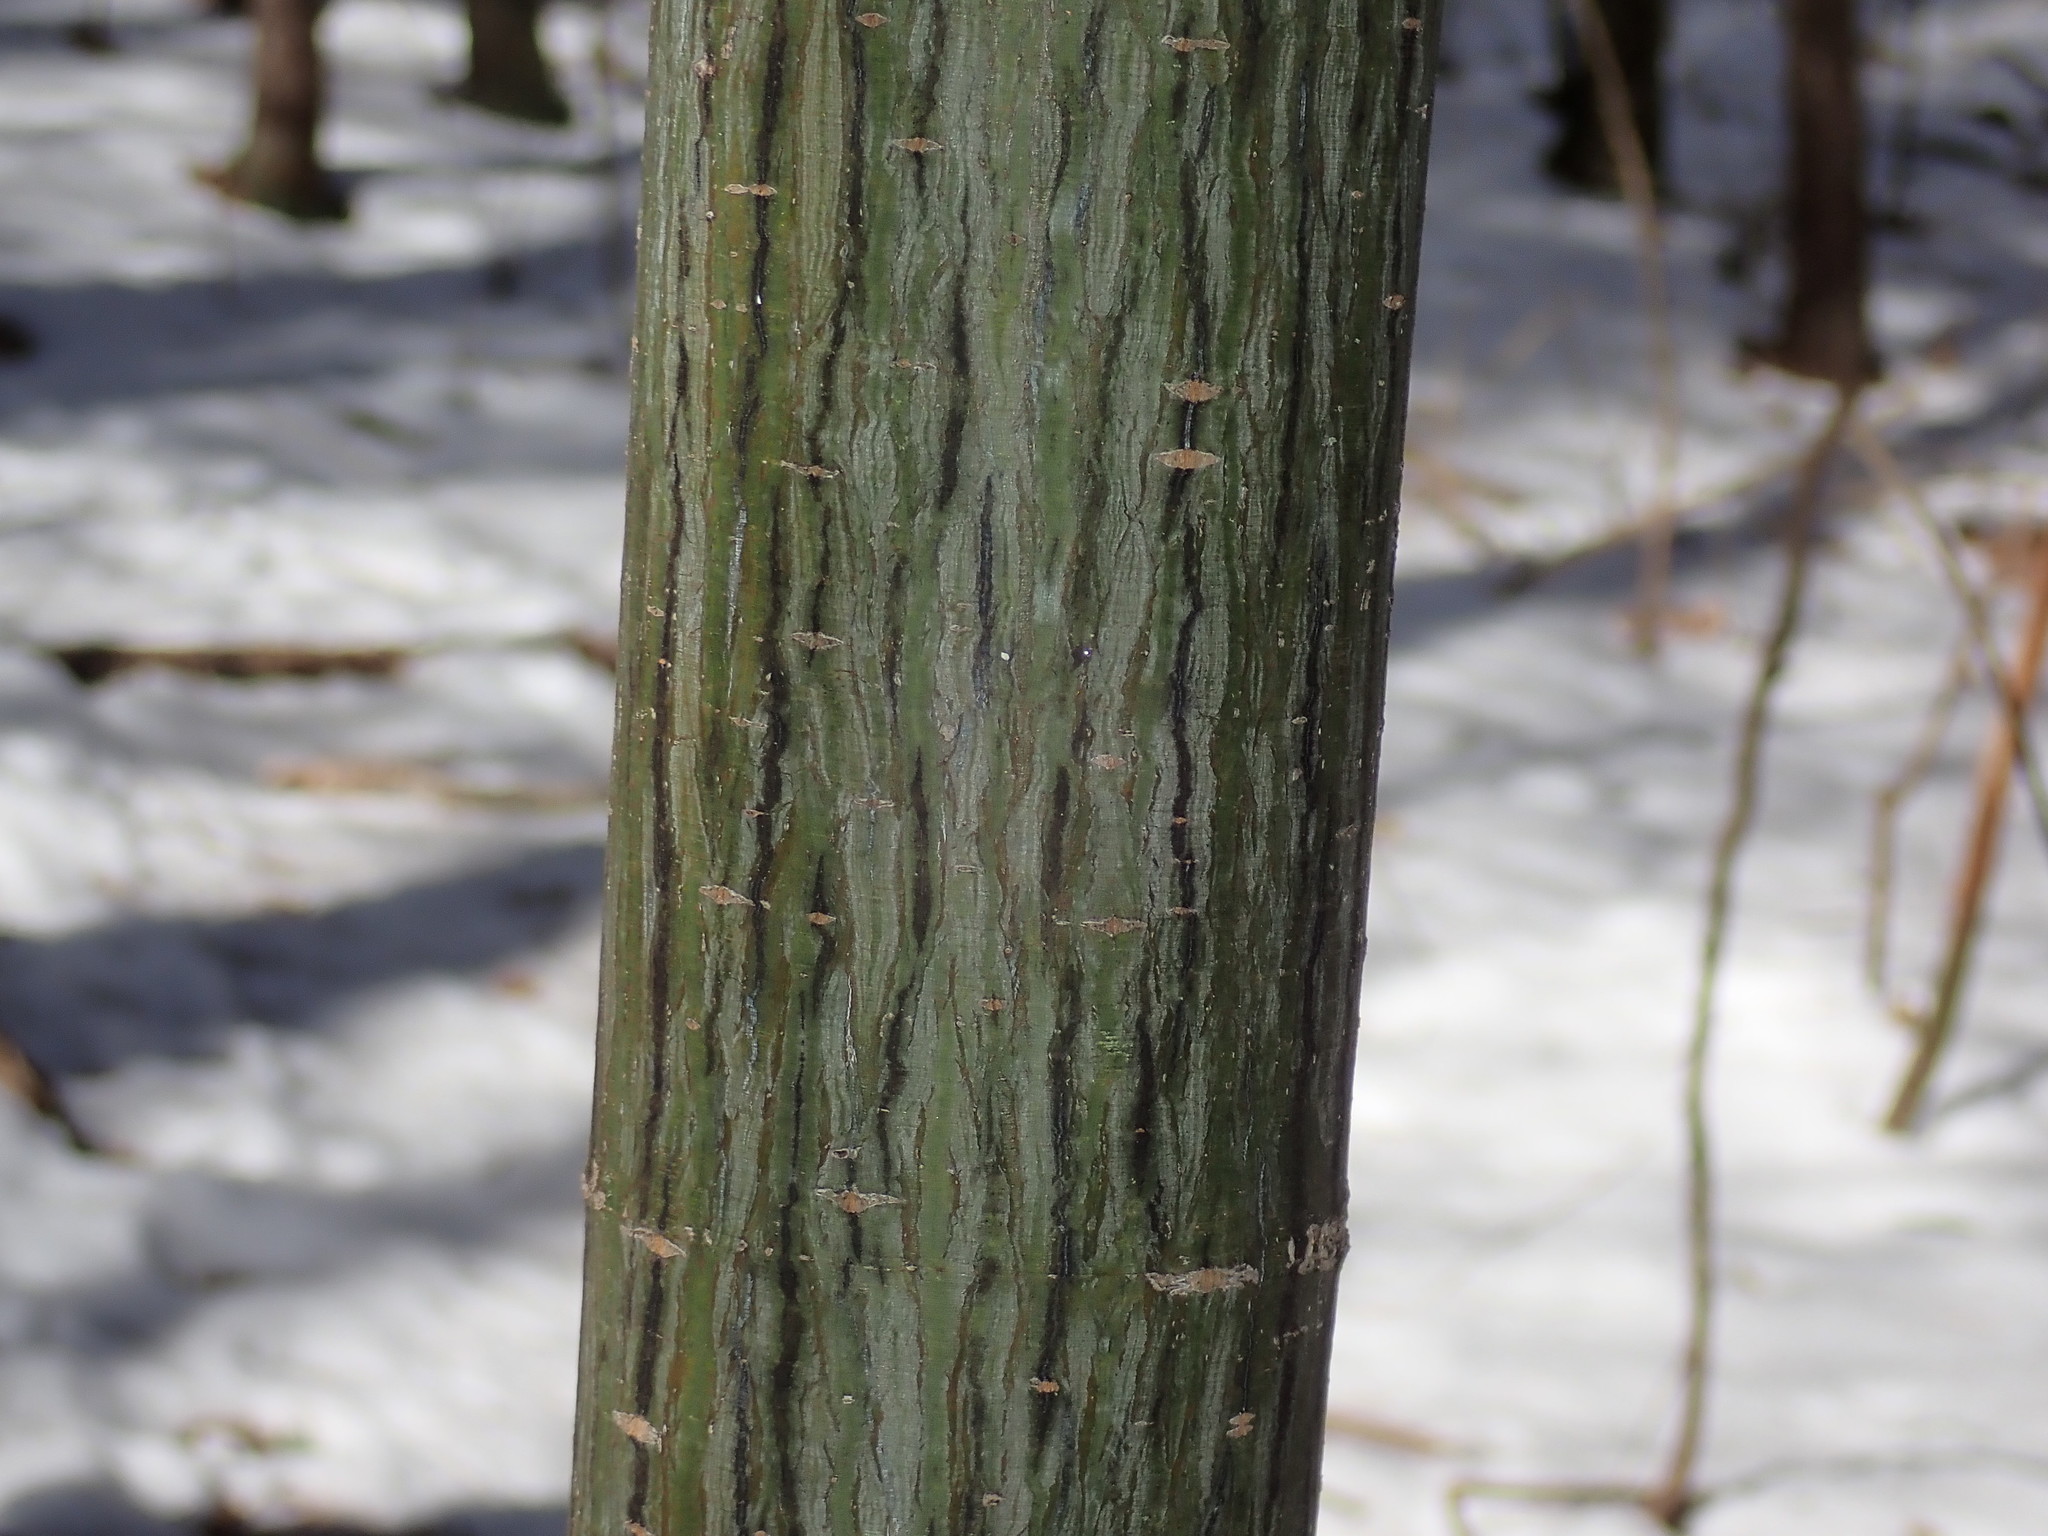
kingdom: Plantae
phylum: Tracheophyta
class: Magnoliopsida
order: Sapindales
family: Sapindaceae
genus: Acer
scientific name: Acer pensylvanicum
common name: Moosewood
